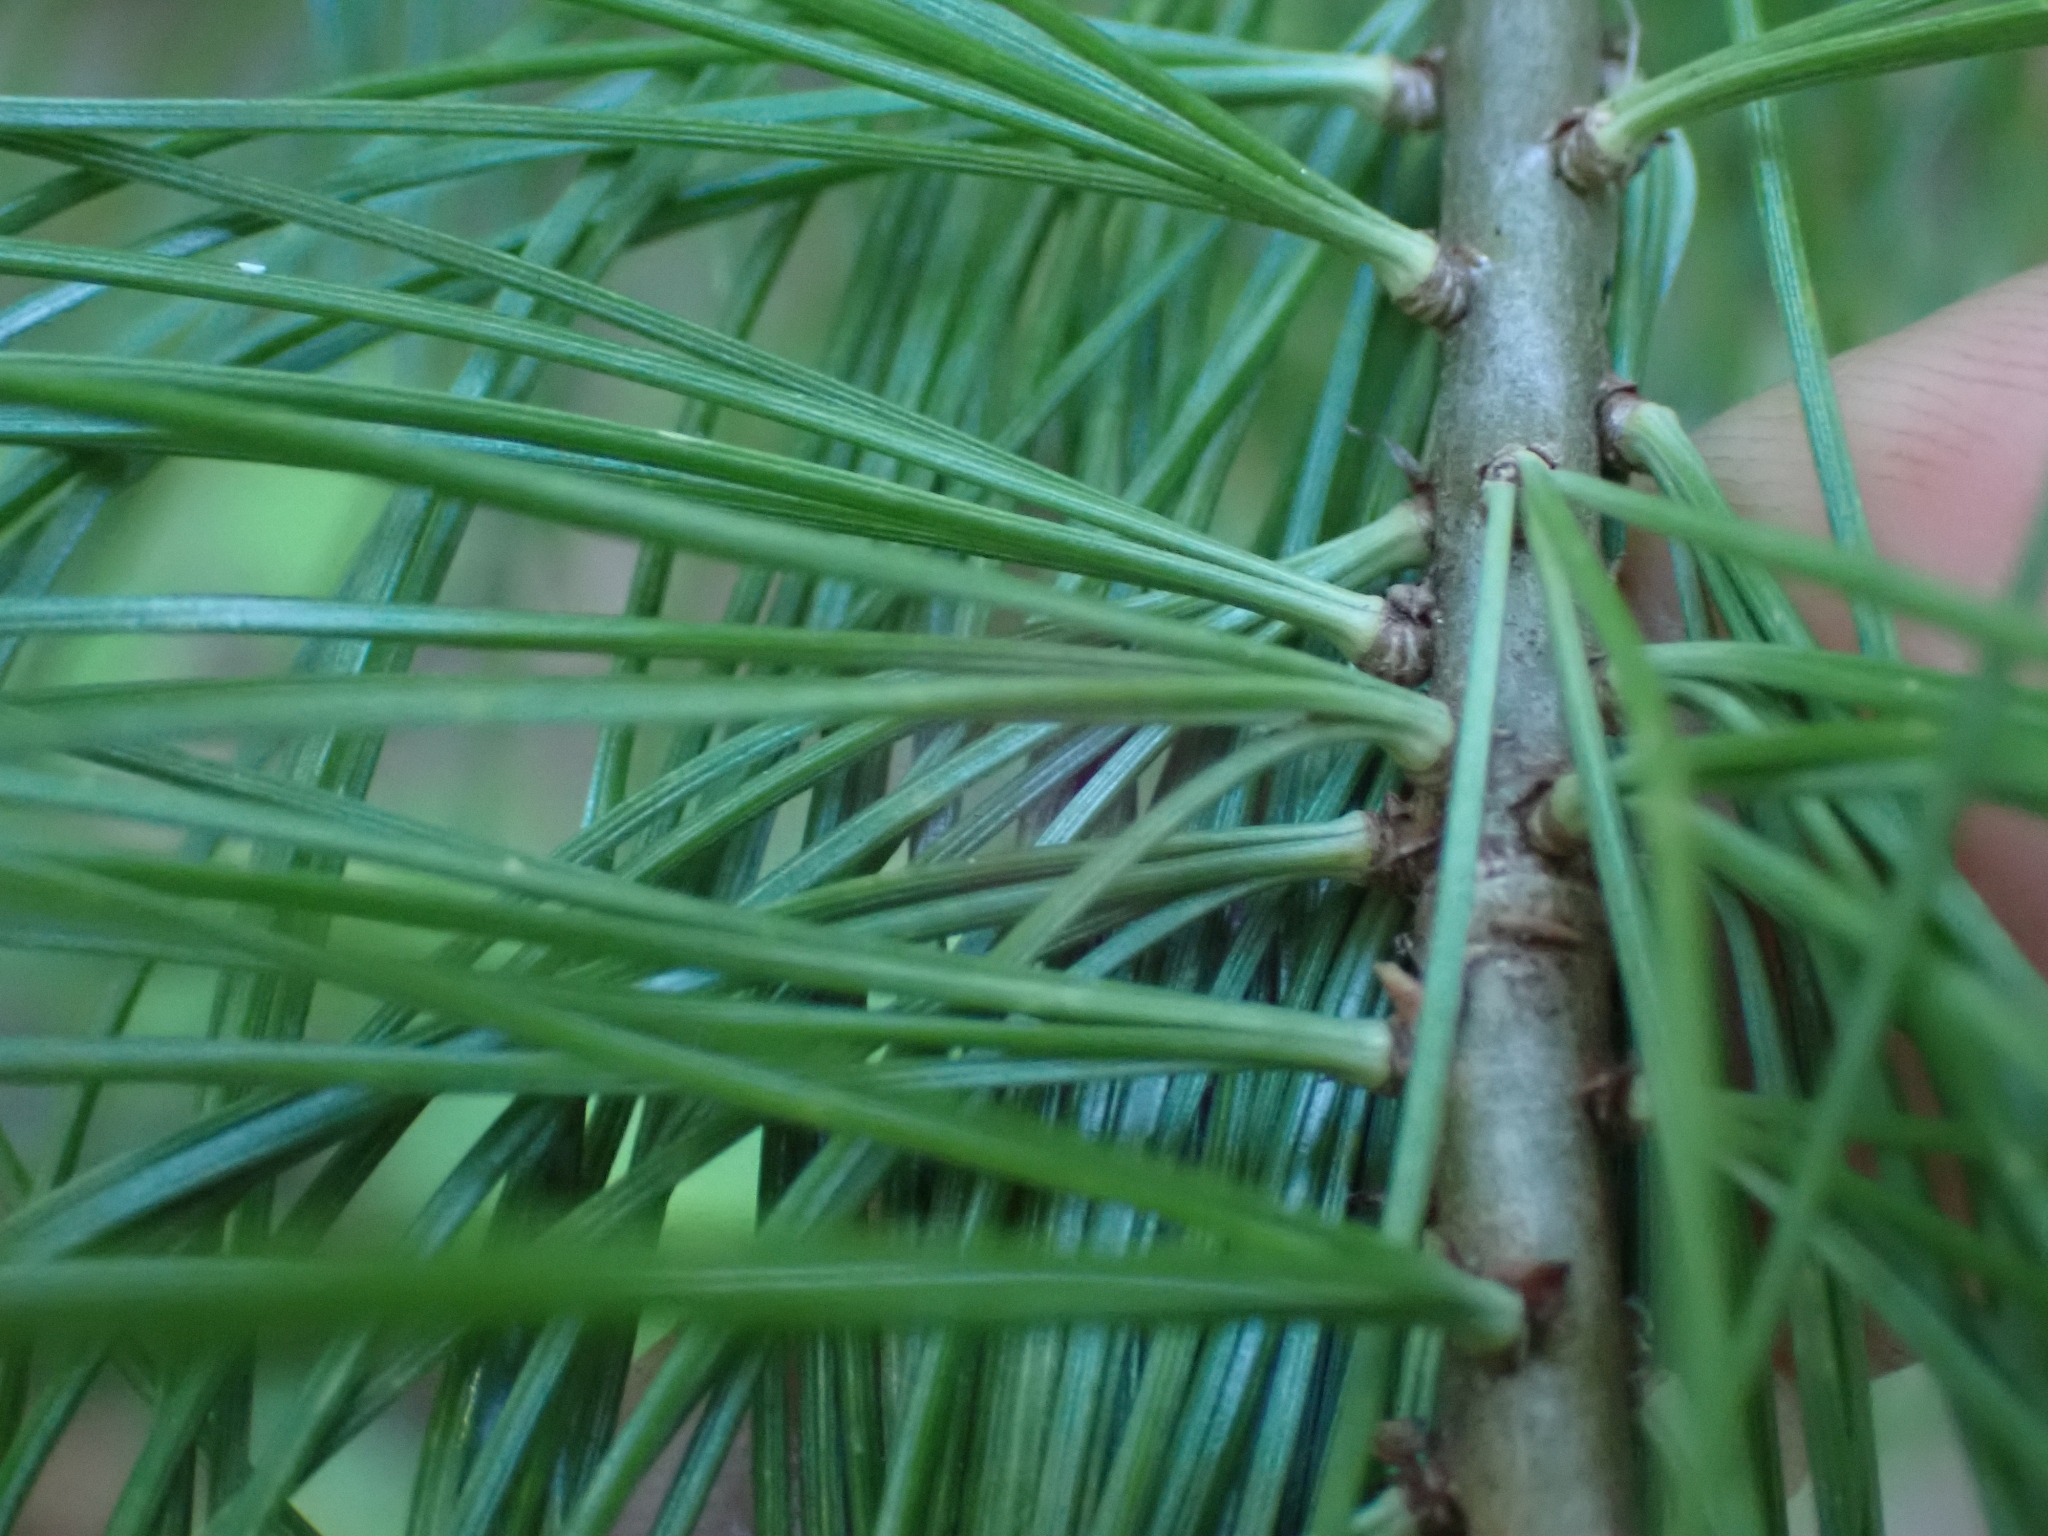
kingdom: Plantae
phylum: Tracheophyta
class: Pinopsida
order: Pinales
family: Pinaceae
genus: Pinus
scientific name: Pinus monticola
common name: Western white pine
